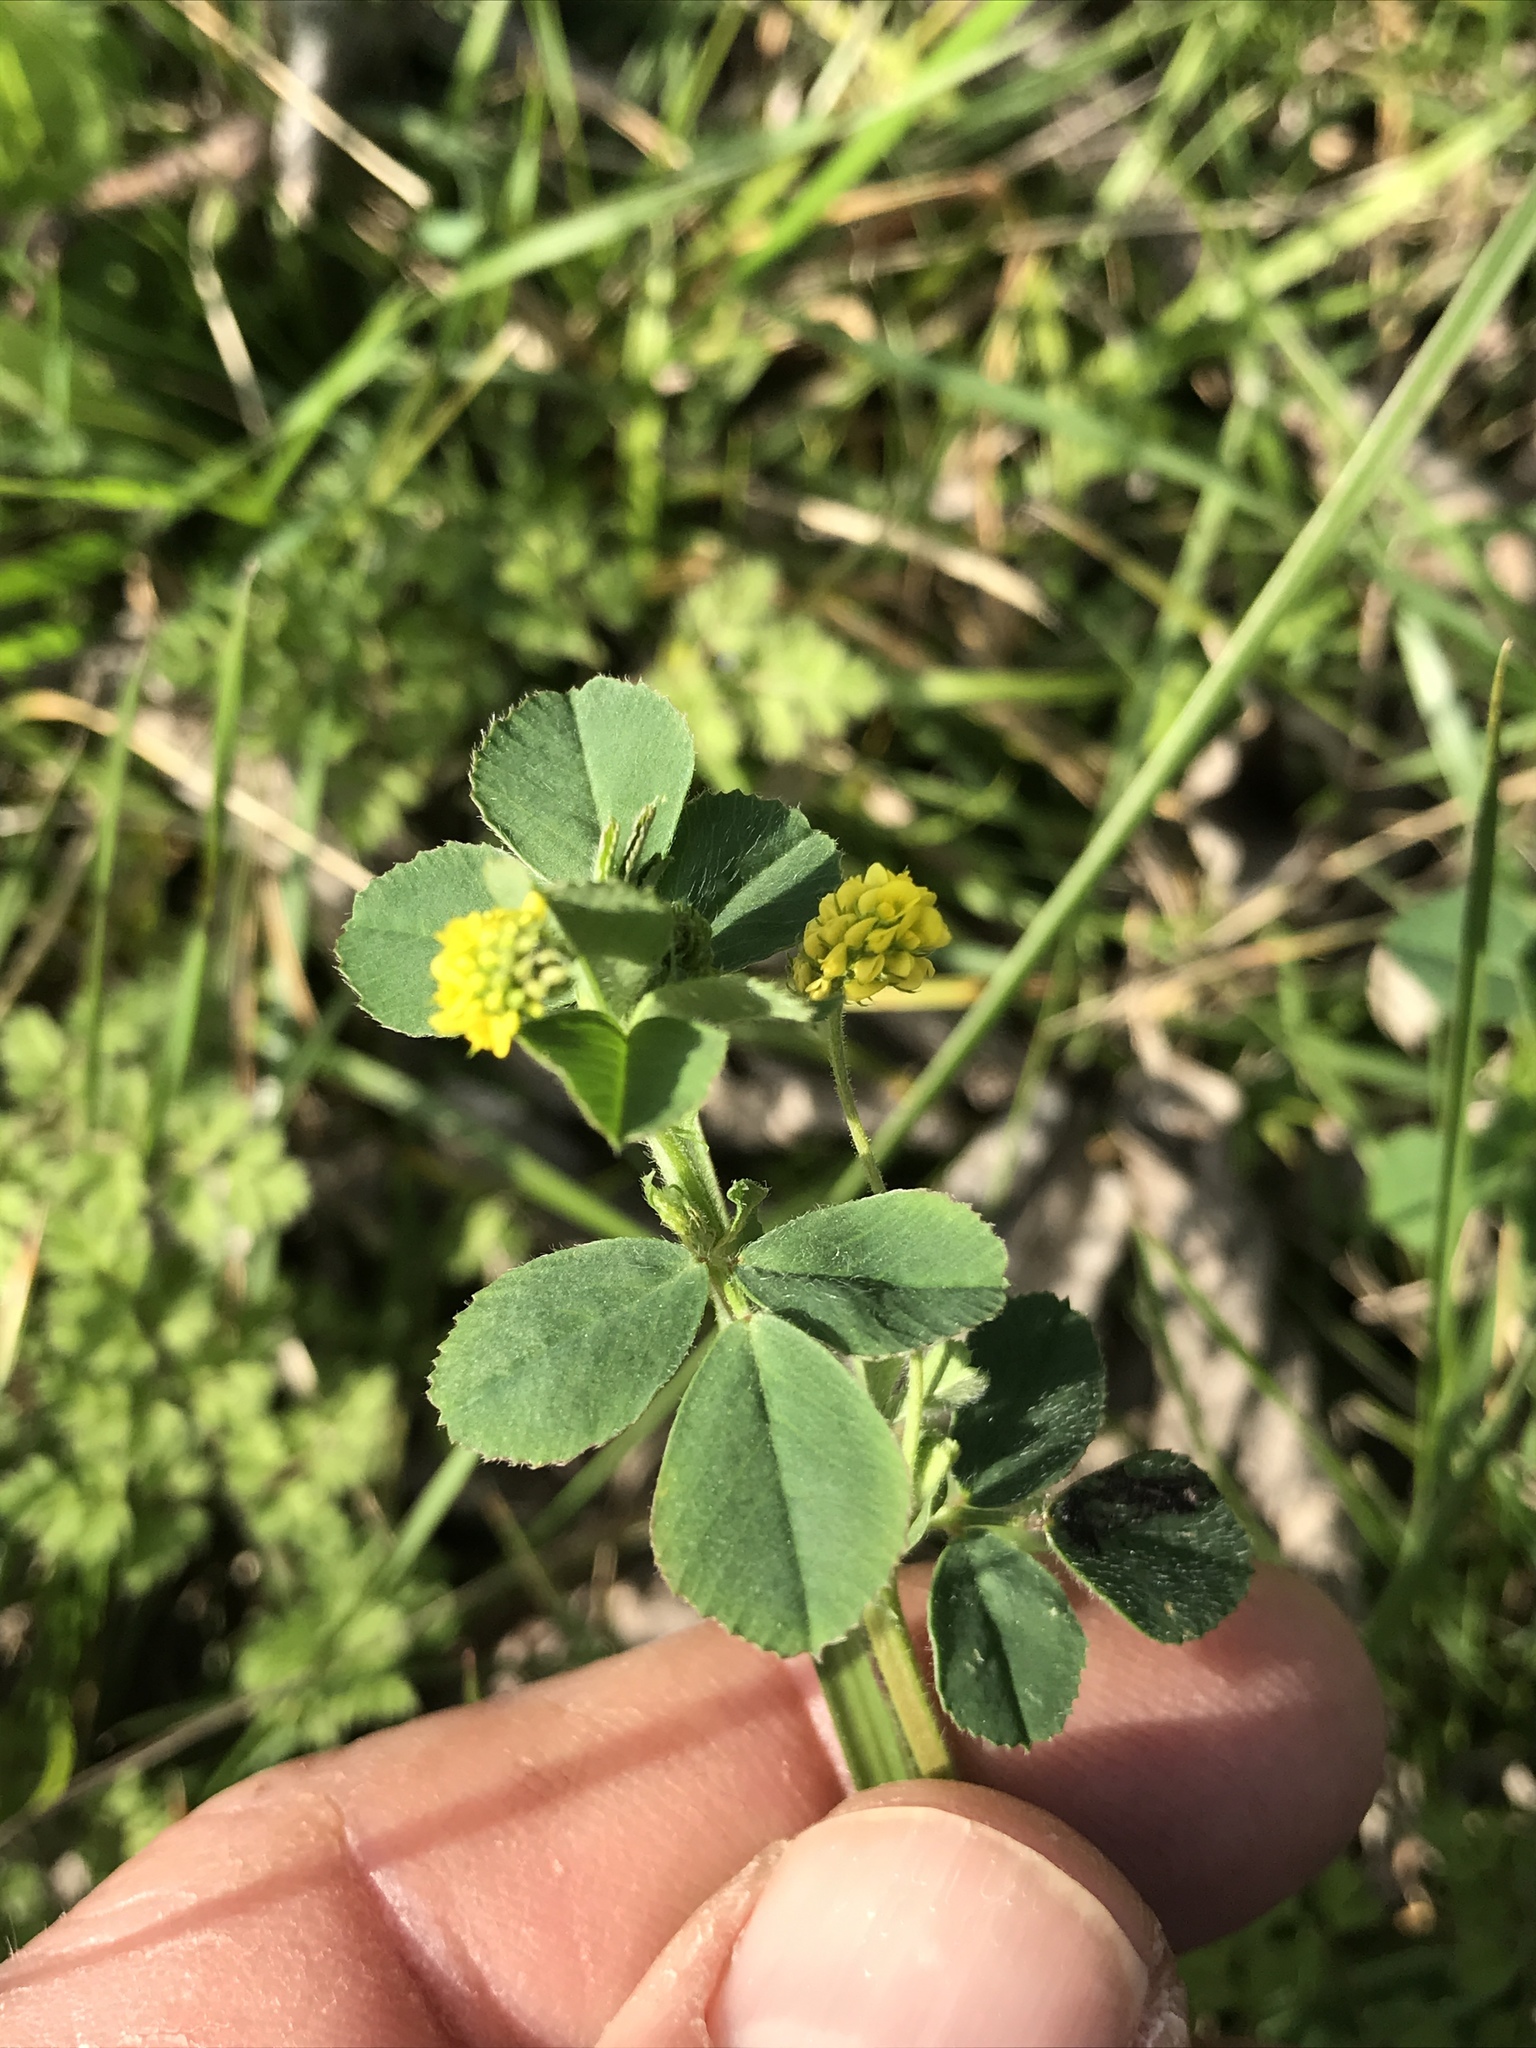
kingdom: Plantae
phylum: Tracheophyta
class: Magnoliopsida
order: Fabales
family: Fabaceae
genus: Medicago
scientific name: Medicago lupulina
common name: Black medick
